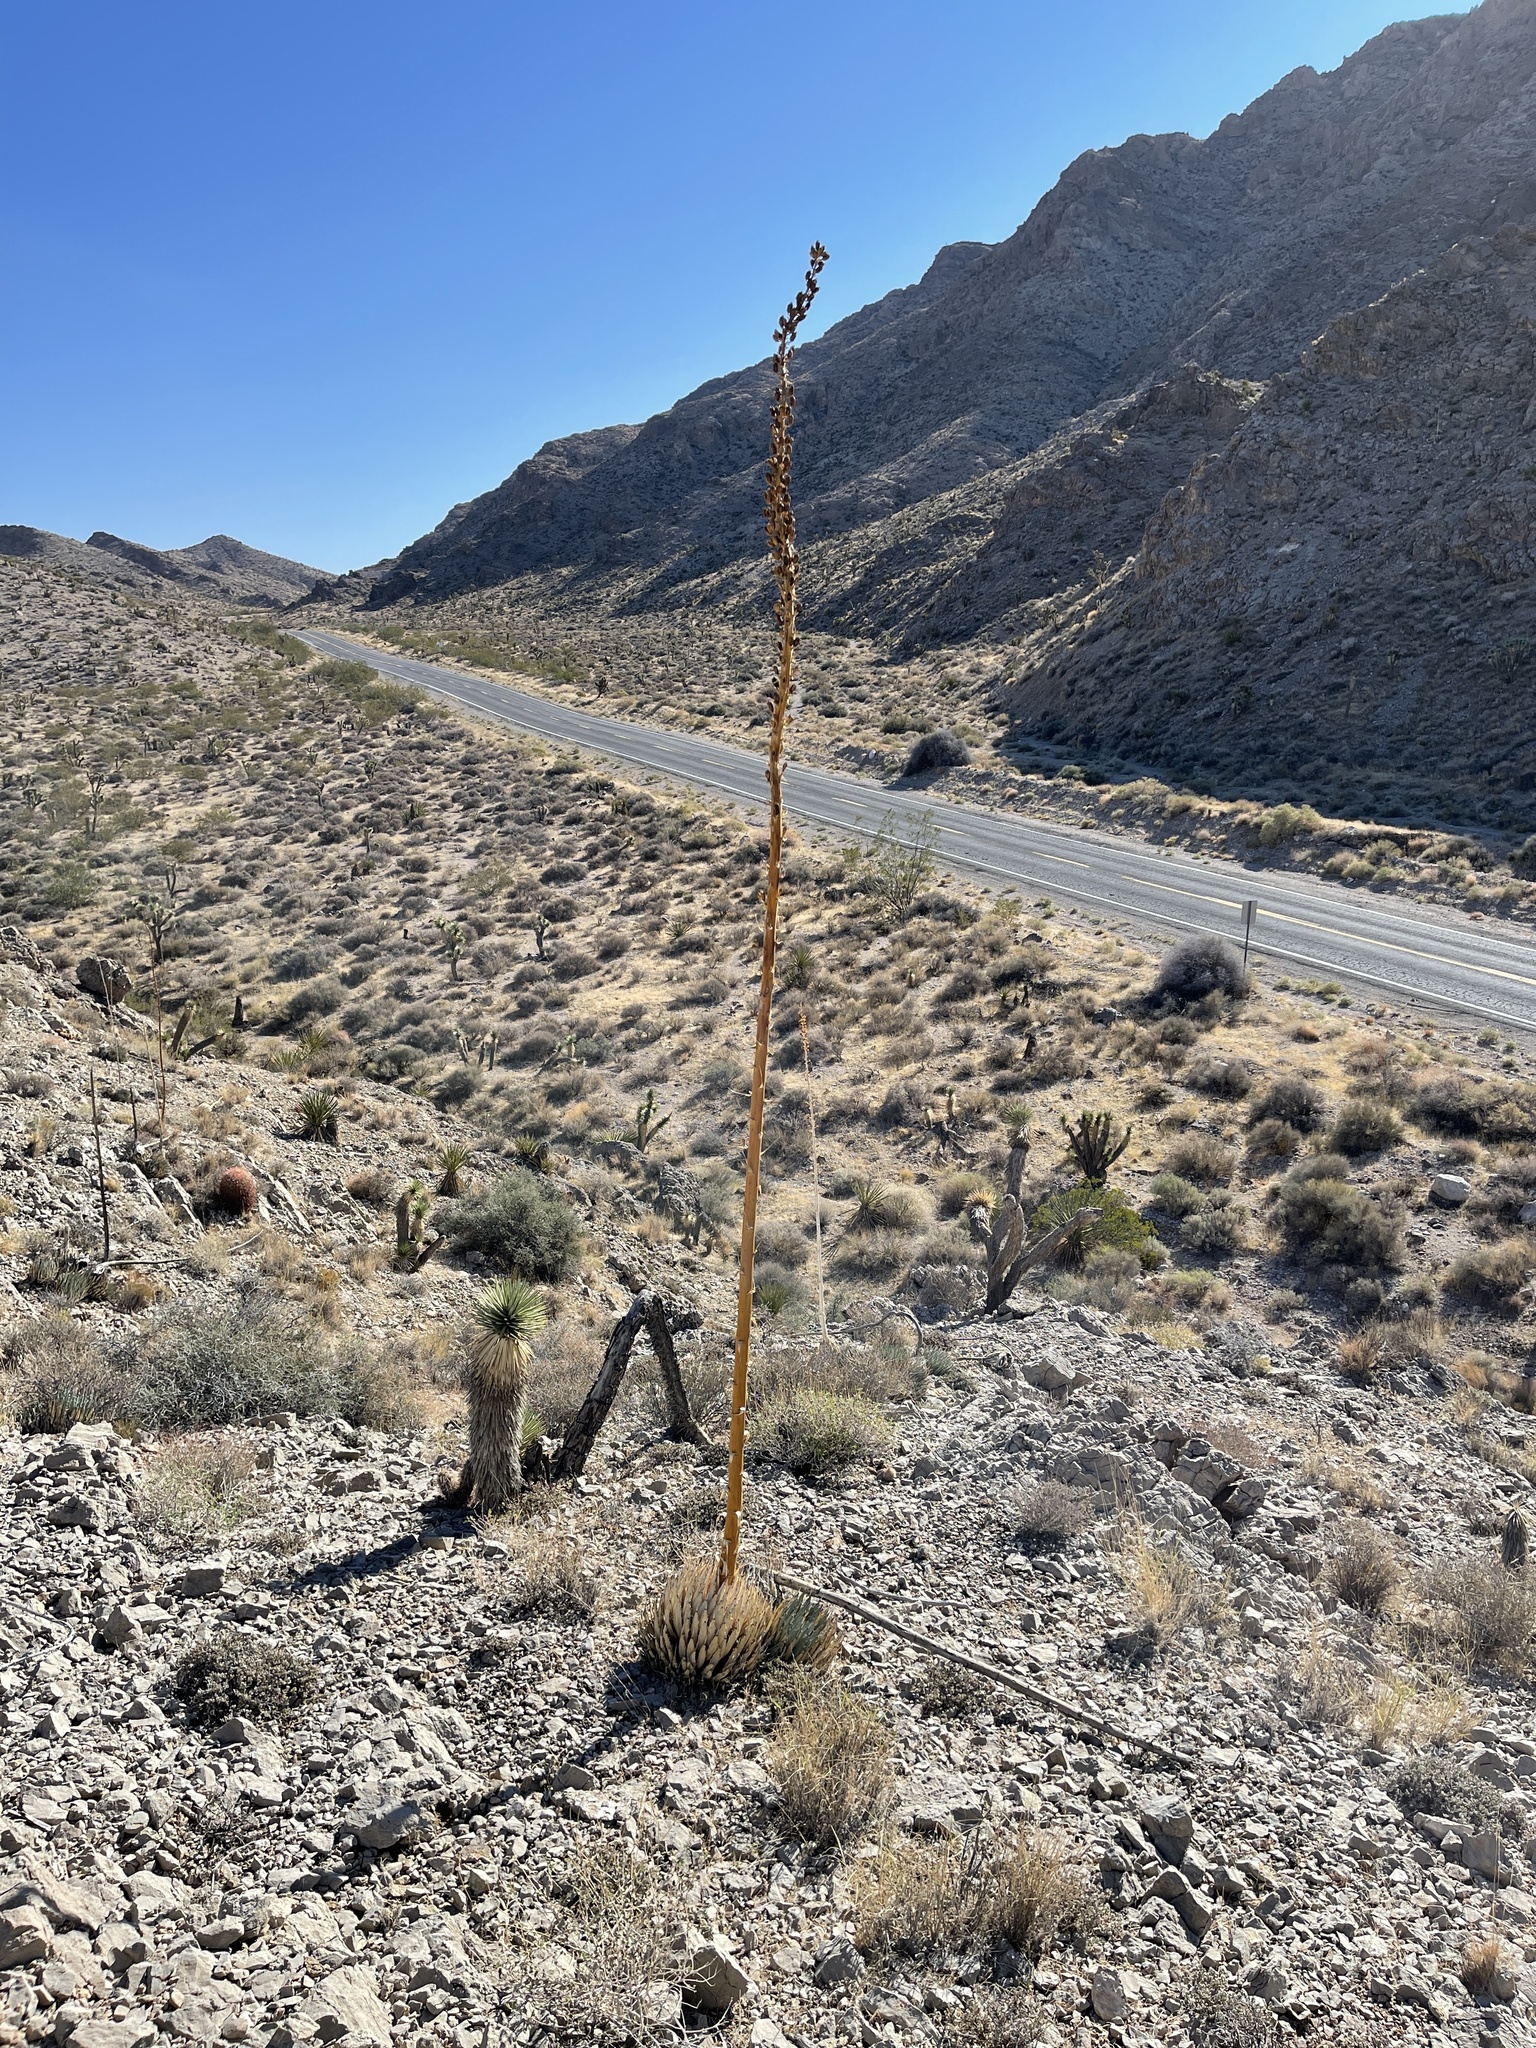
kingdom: Plantae
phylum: Tracheophyta
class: Liliopsida
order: Asparagales
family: Asparagaceae
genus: Agave
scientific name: Agave utahensis
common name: Utah agave
